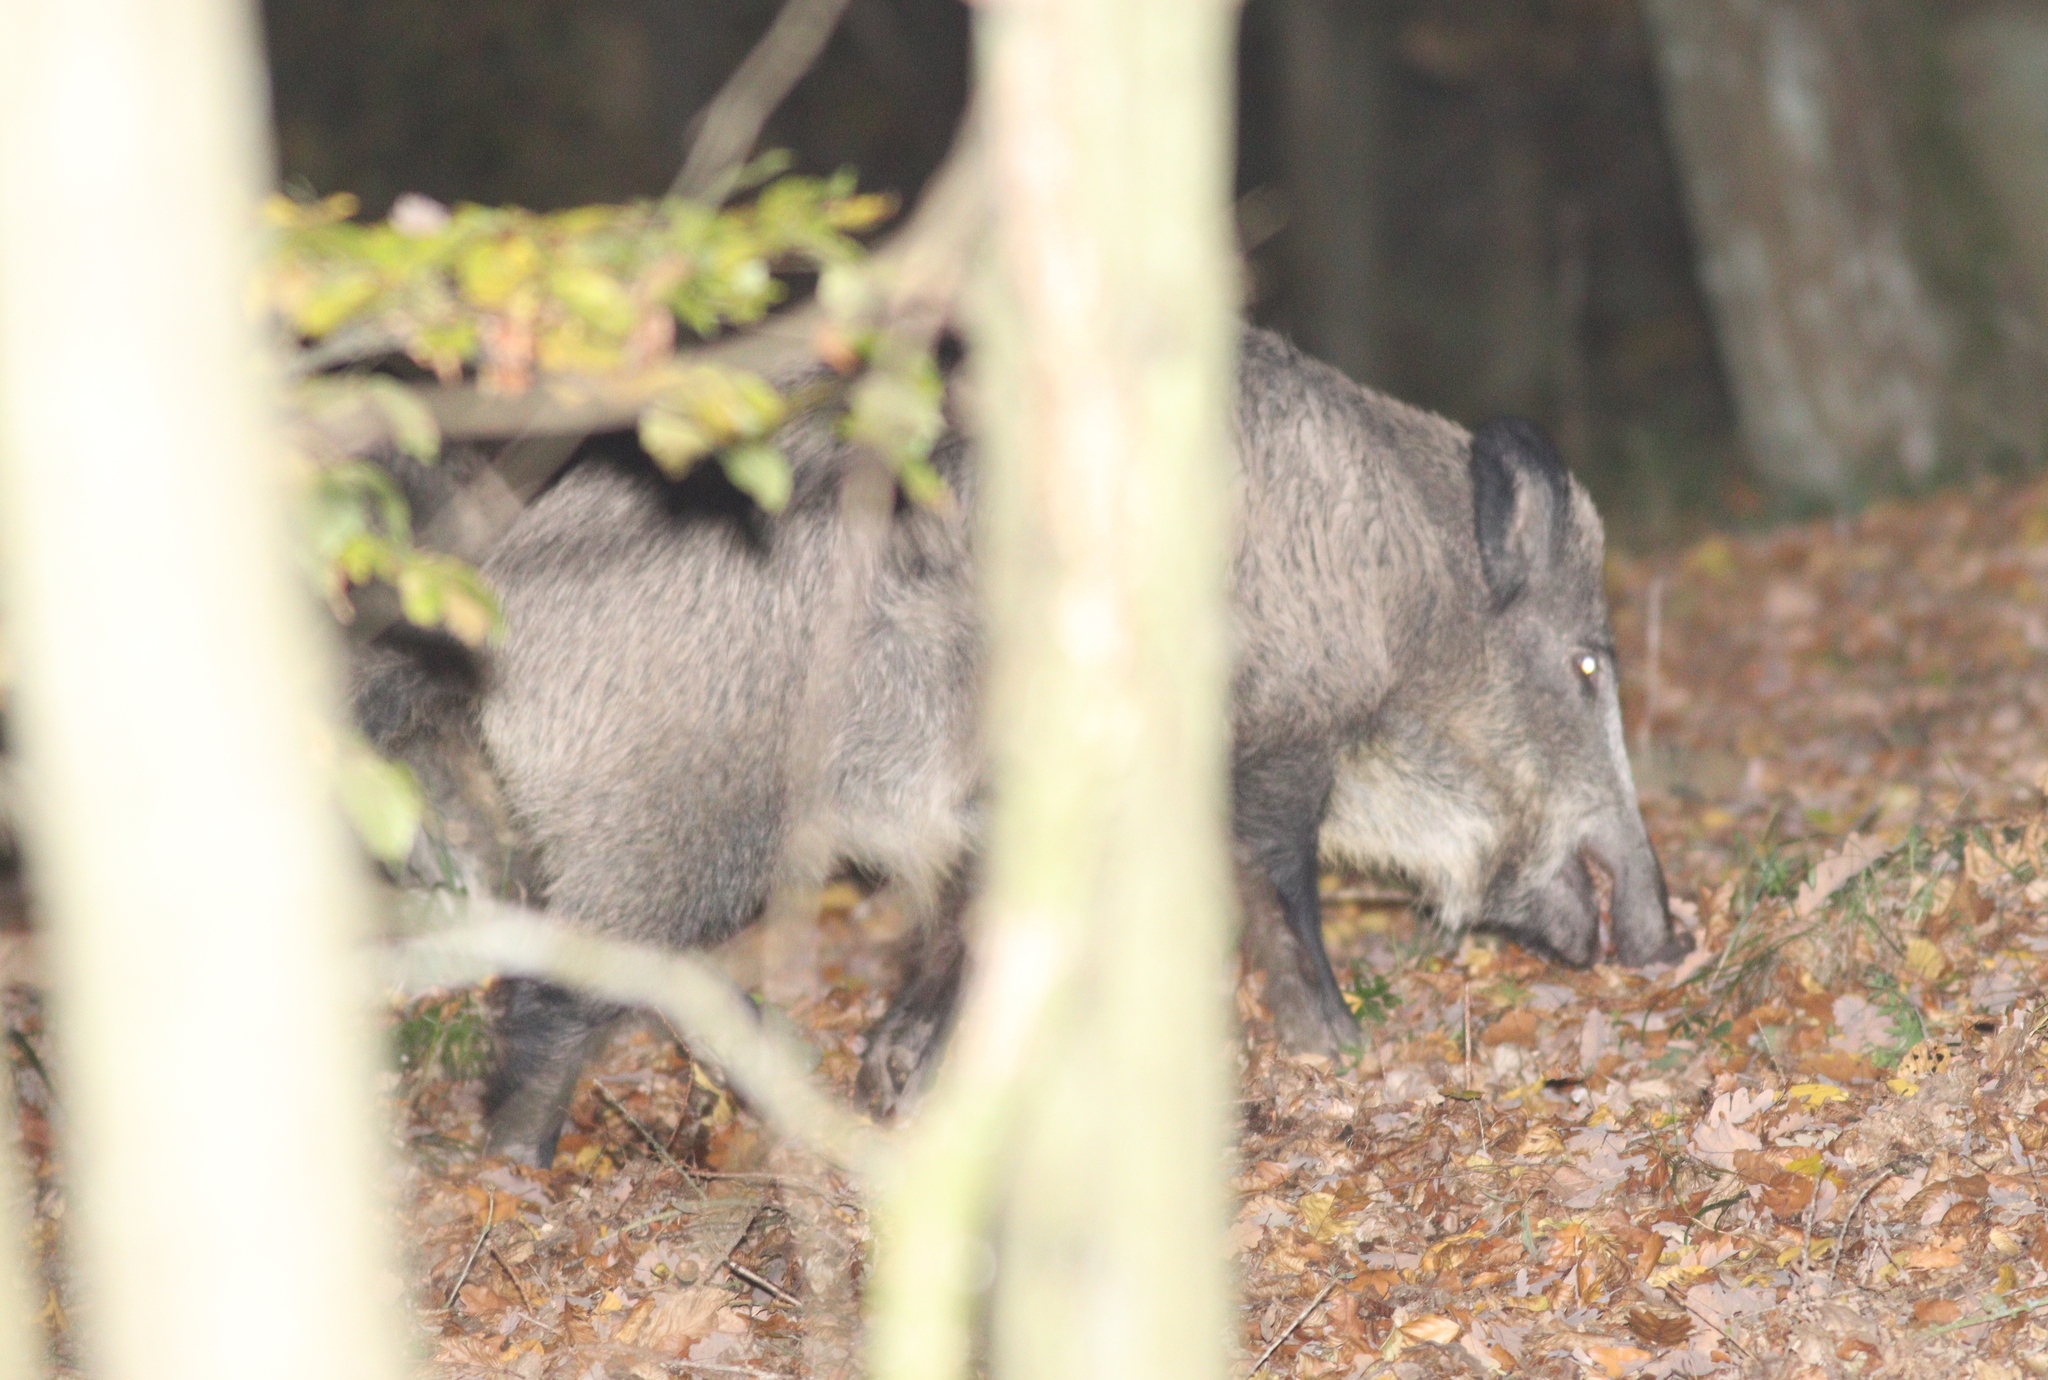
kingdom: Animalia
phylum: Chordata
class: Mammalia
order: Artiodactyla
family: Suidae
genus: Sus
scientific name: Sus scrofa
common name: Wild boar
